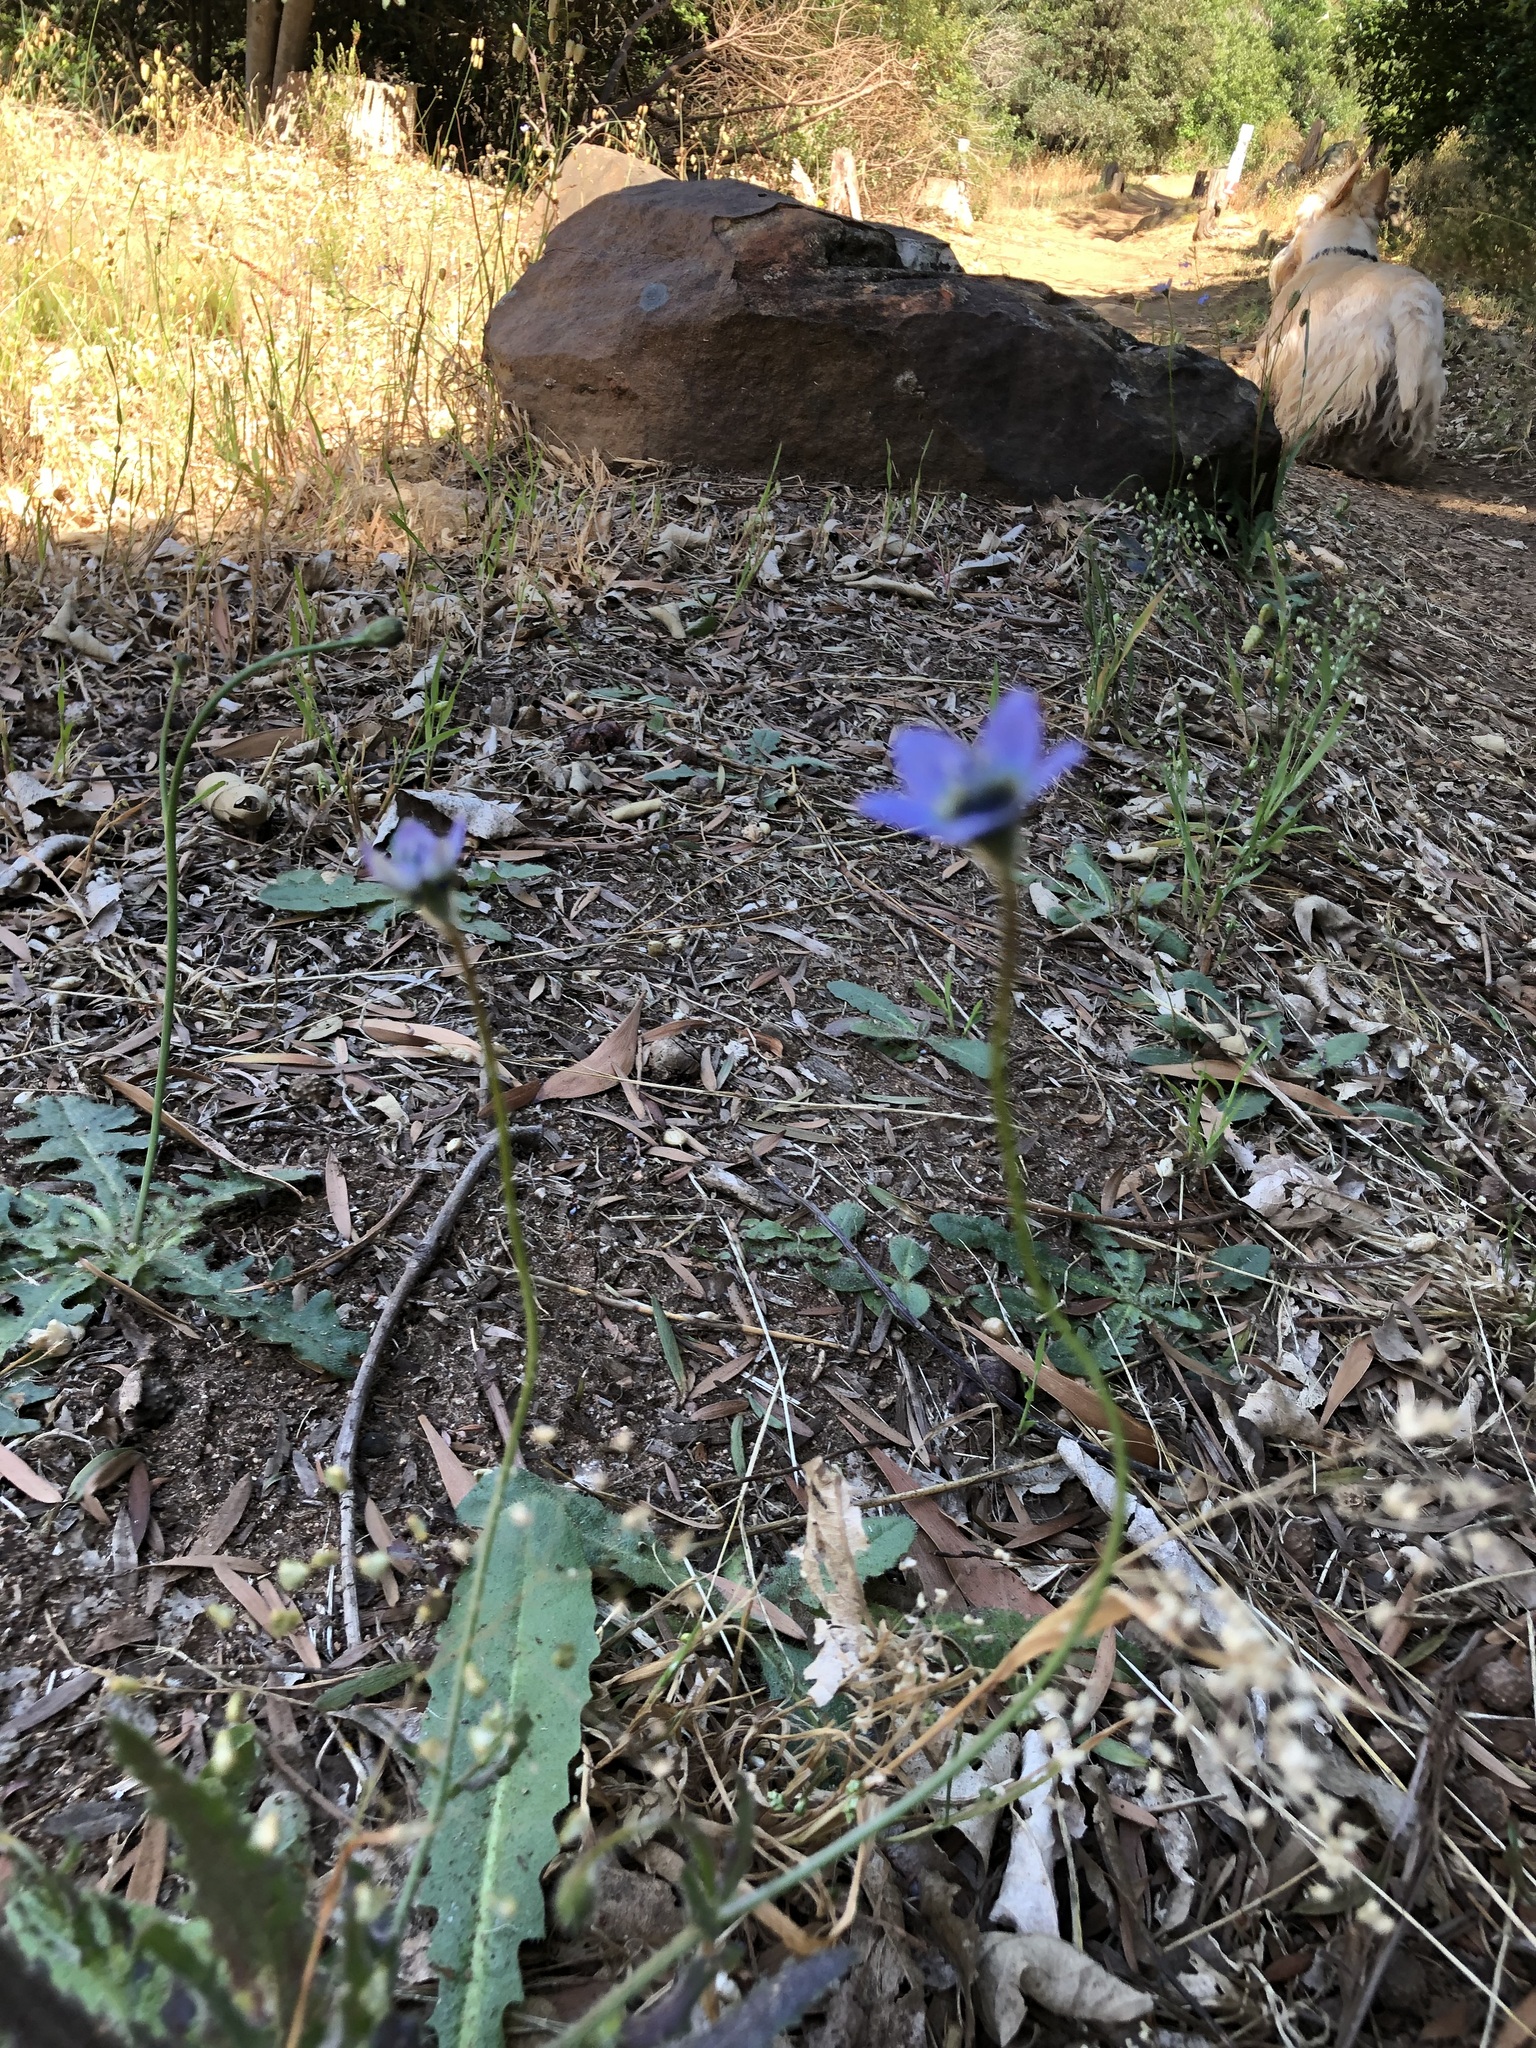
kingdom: Plantae
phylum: Tracheophyta
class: Magnoliopsida
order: Asterales
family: Campanulaceae
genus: Wahlenbergia
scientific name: Wahlenbergia capensis
